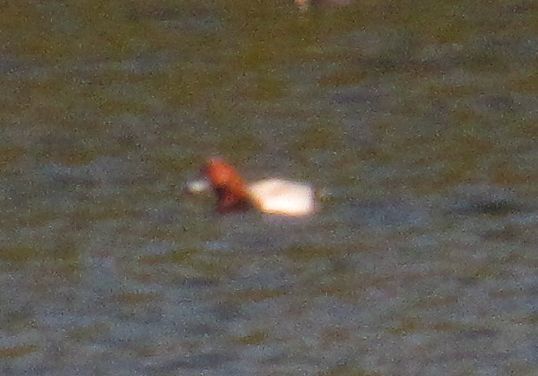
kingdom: Animalia
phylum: Chordata
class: Aves
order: Anseriformes
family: Anatidae
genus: Aythya
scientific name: Aythya ferina
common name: Common pochard
